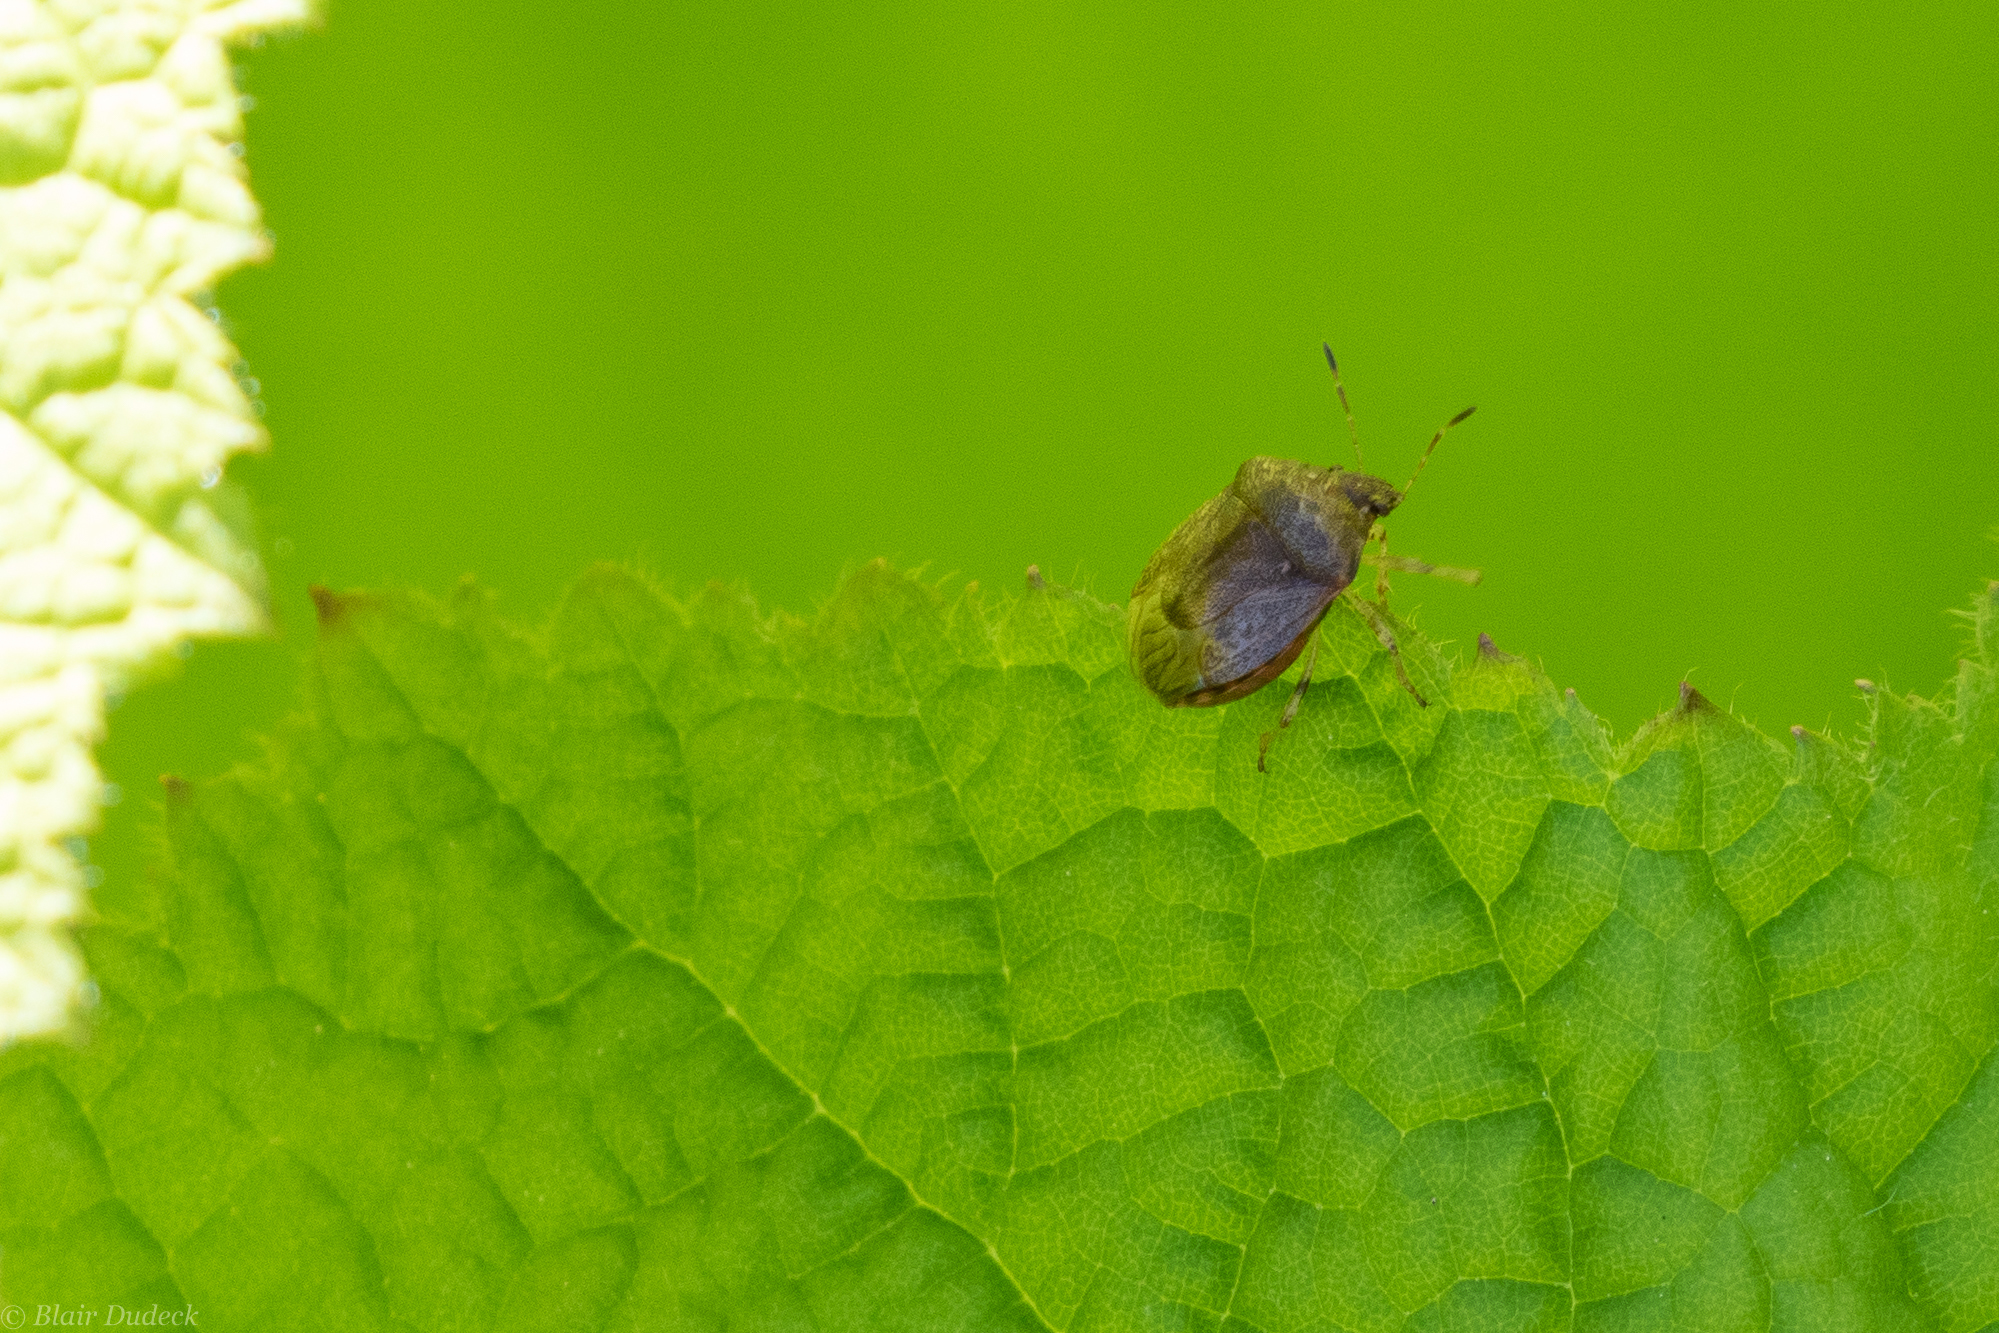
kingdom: Animalia
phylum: Arthropoda
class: Insecta
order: Hemiptera
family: Pentatomidae
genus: Cosmopepla
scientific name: Cosmopepla intergressus
